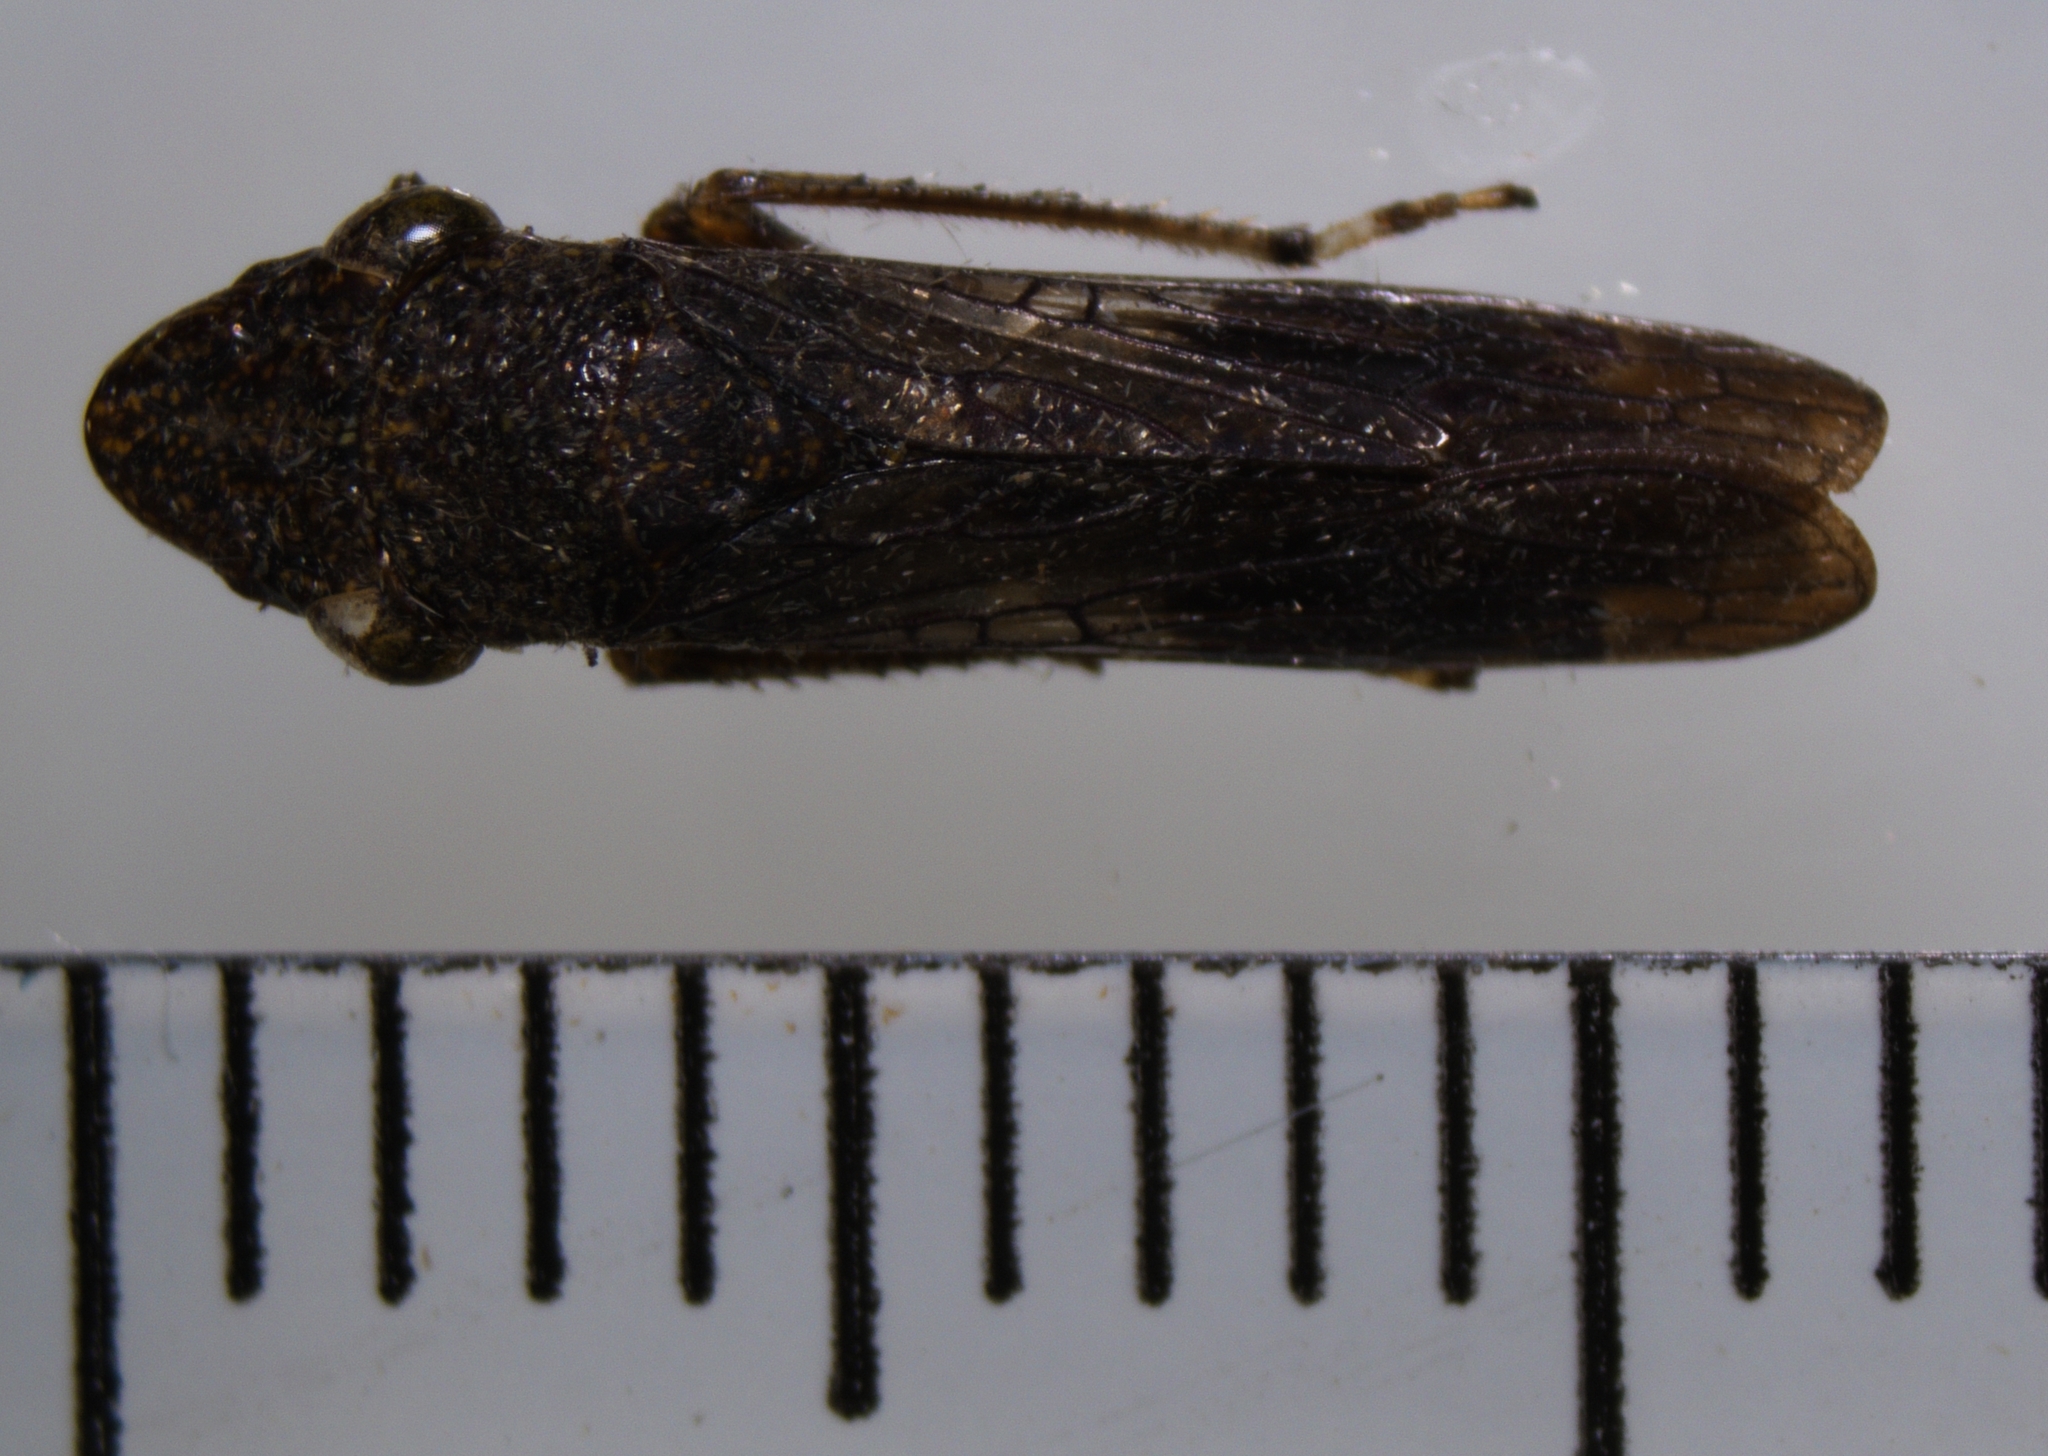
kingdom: Animalia
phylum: Arthropoda
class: Insecta
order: Hemiptera
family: Cicadellidae
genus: Homalodisca
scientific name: Homalodisca vitripennis
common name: Glassy-winged sharpshooter
